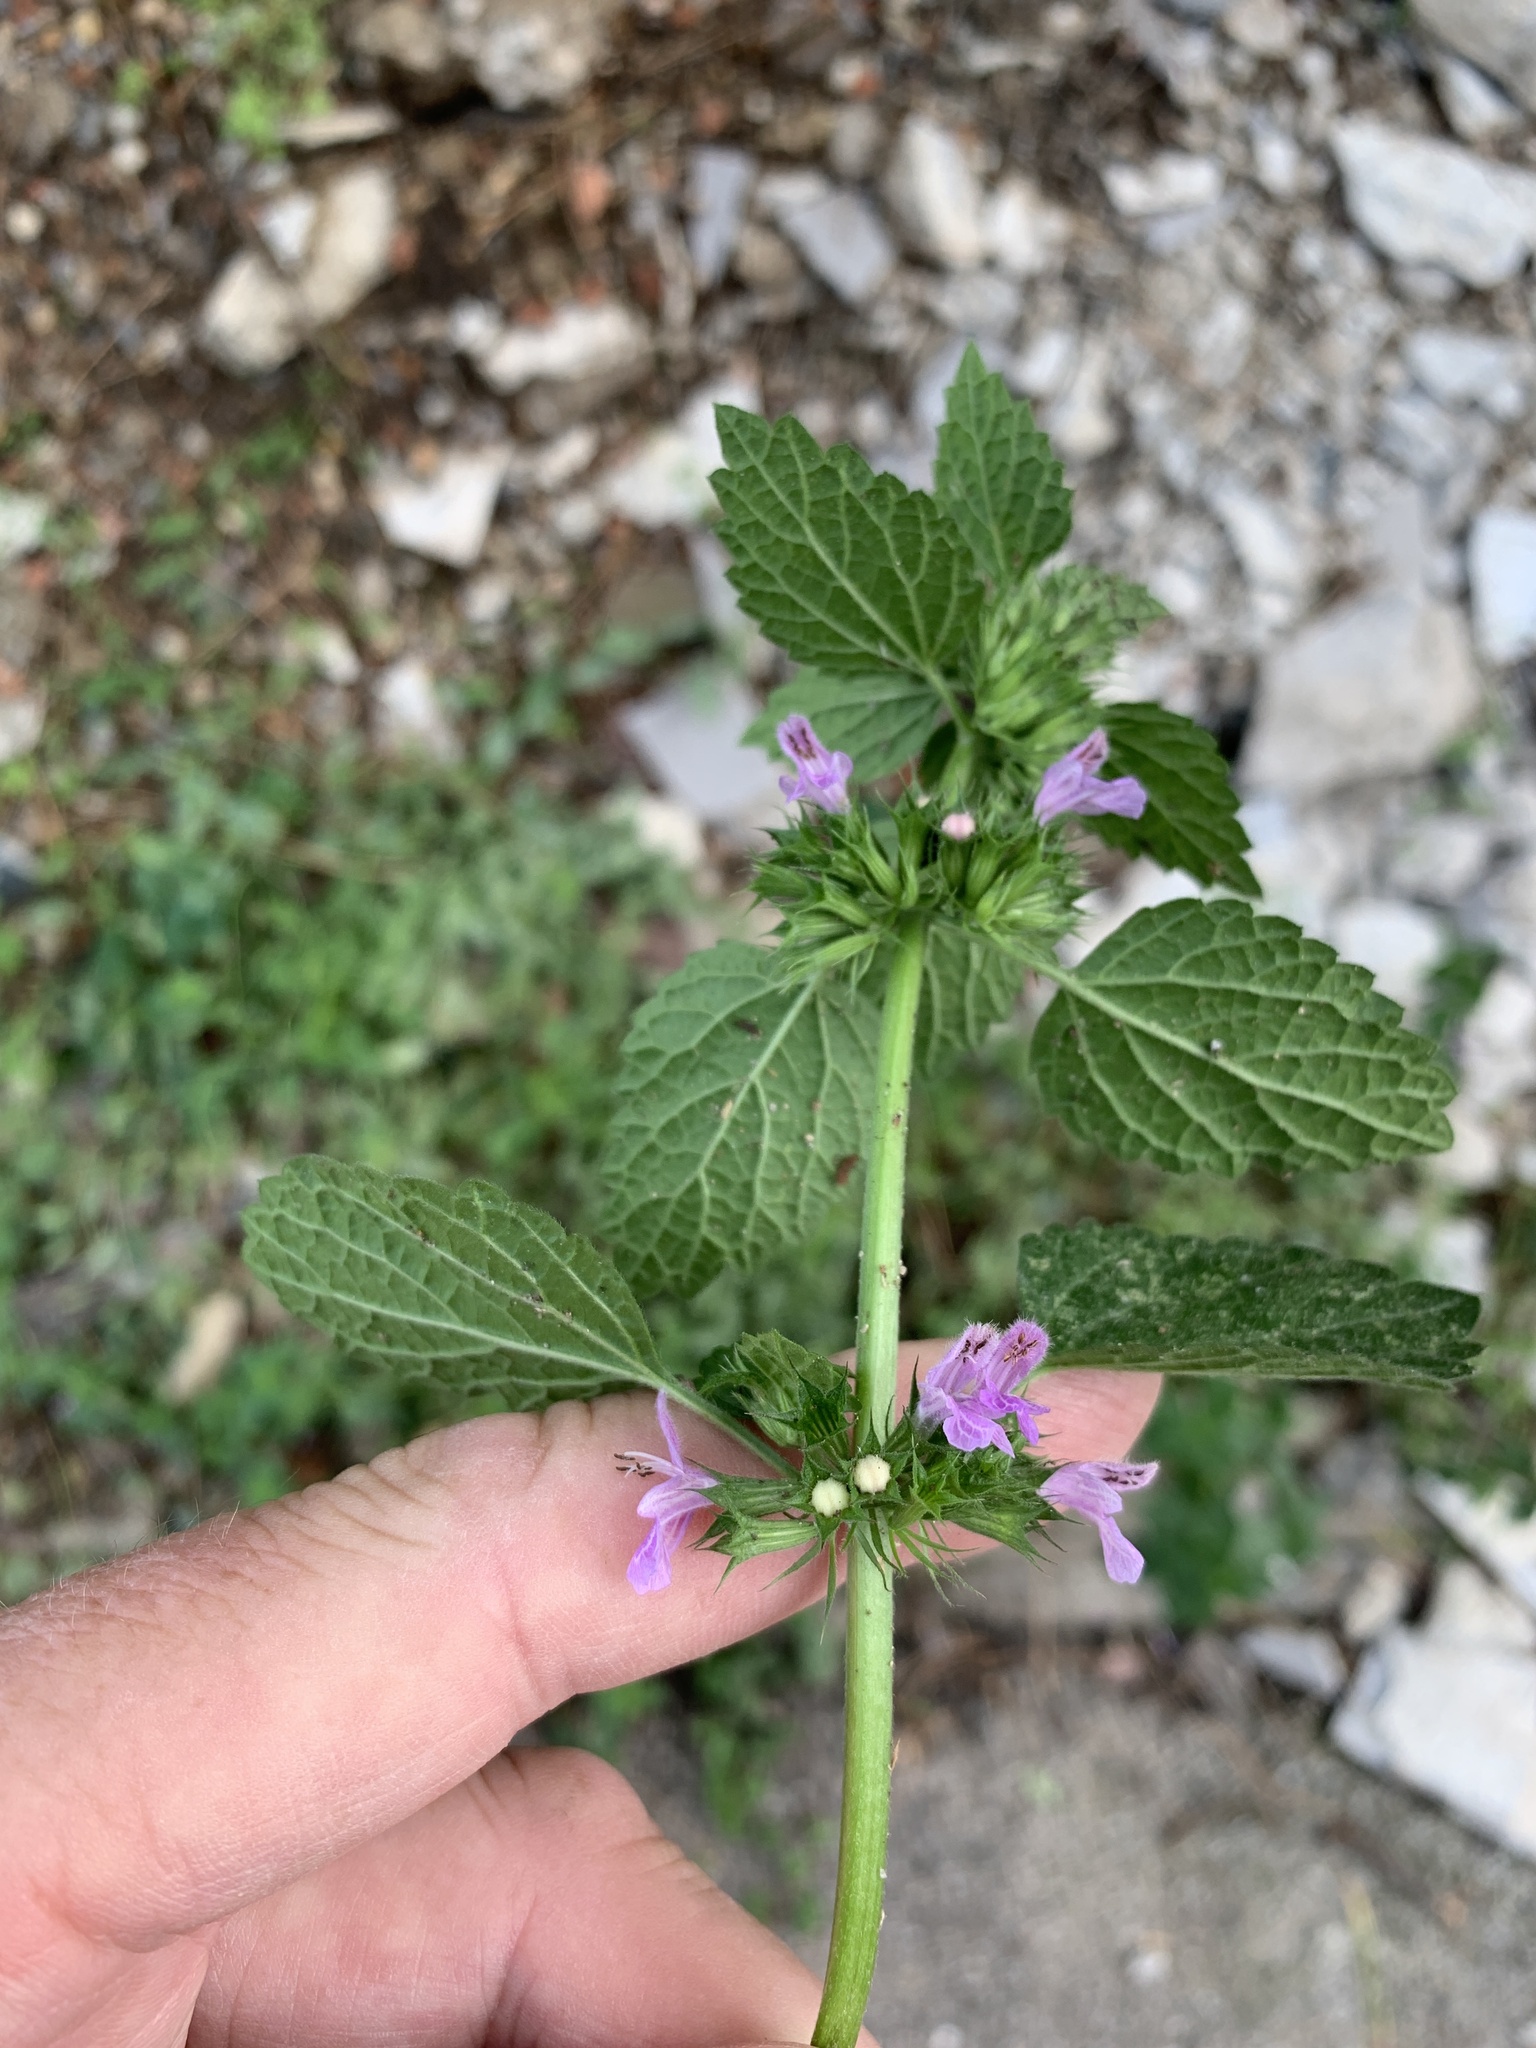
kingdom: Plantae
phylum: Tracheophyta
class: Magnoliopsida
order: Lamiales
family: Lamiaceae
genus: Ballota
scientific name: Ballota nigra
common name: Black horehound
